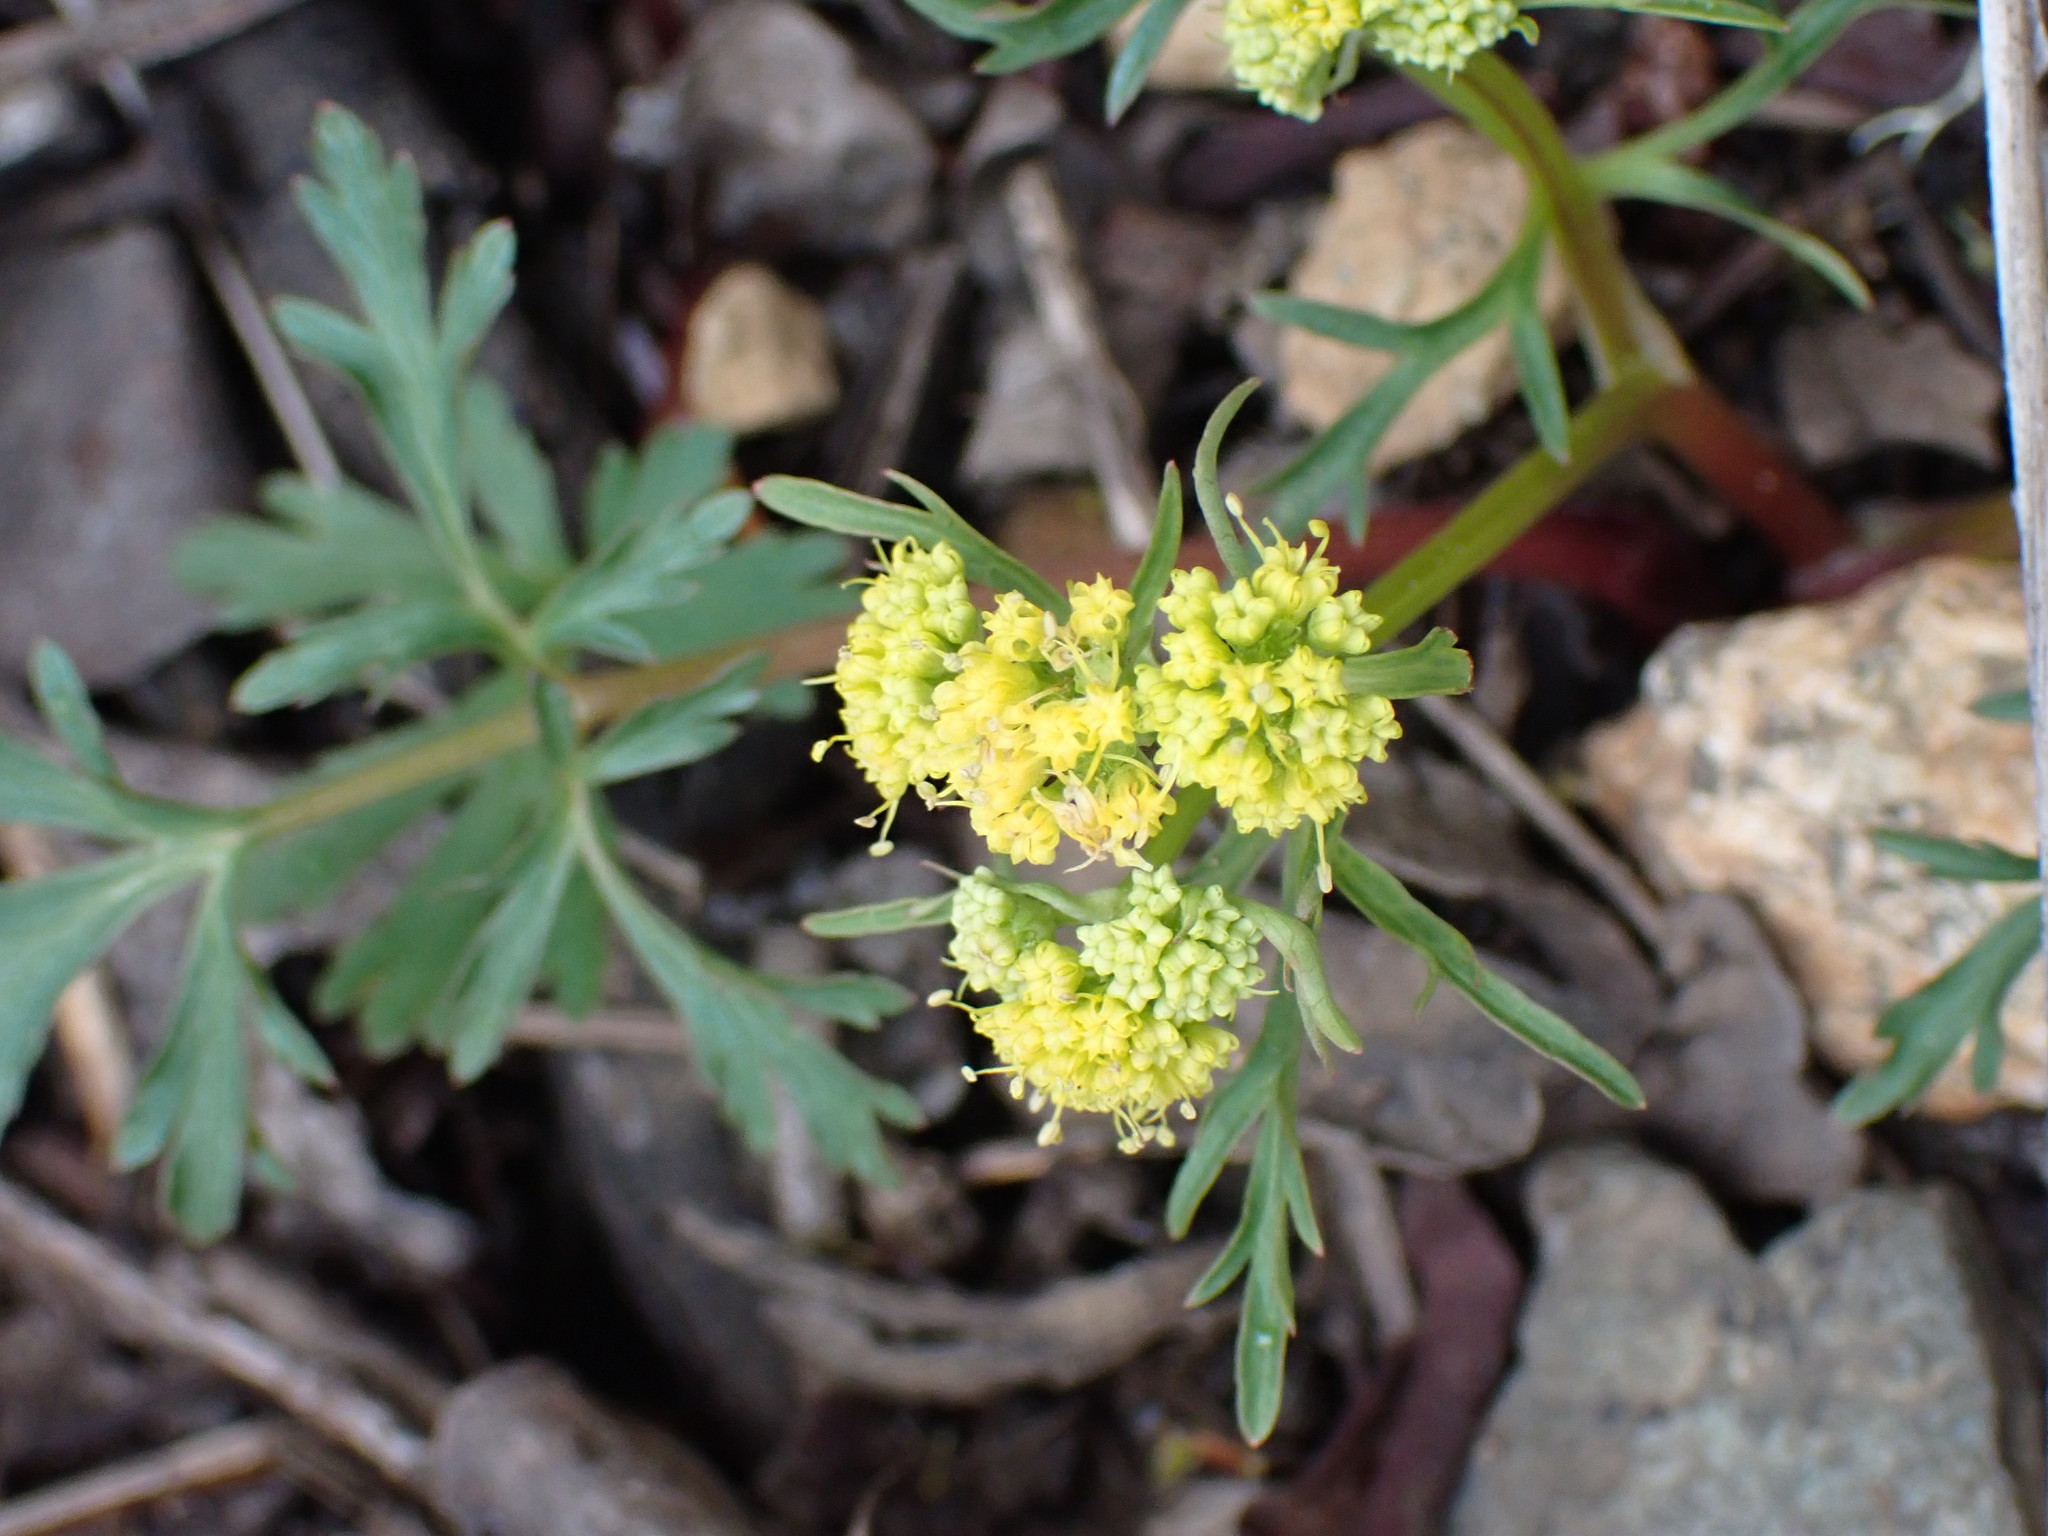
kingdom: Plantae
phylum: Tracheophyta
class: Magnoliopsida
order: Apiales
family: Apiaceae
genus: Sanicula
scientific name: Sanicula graveolens
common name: Sierra sanicle
